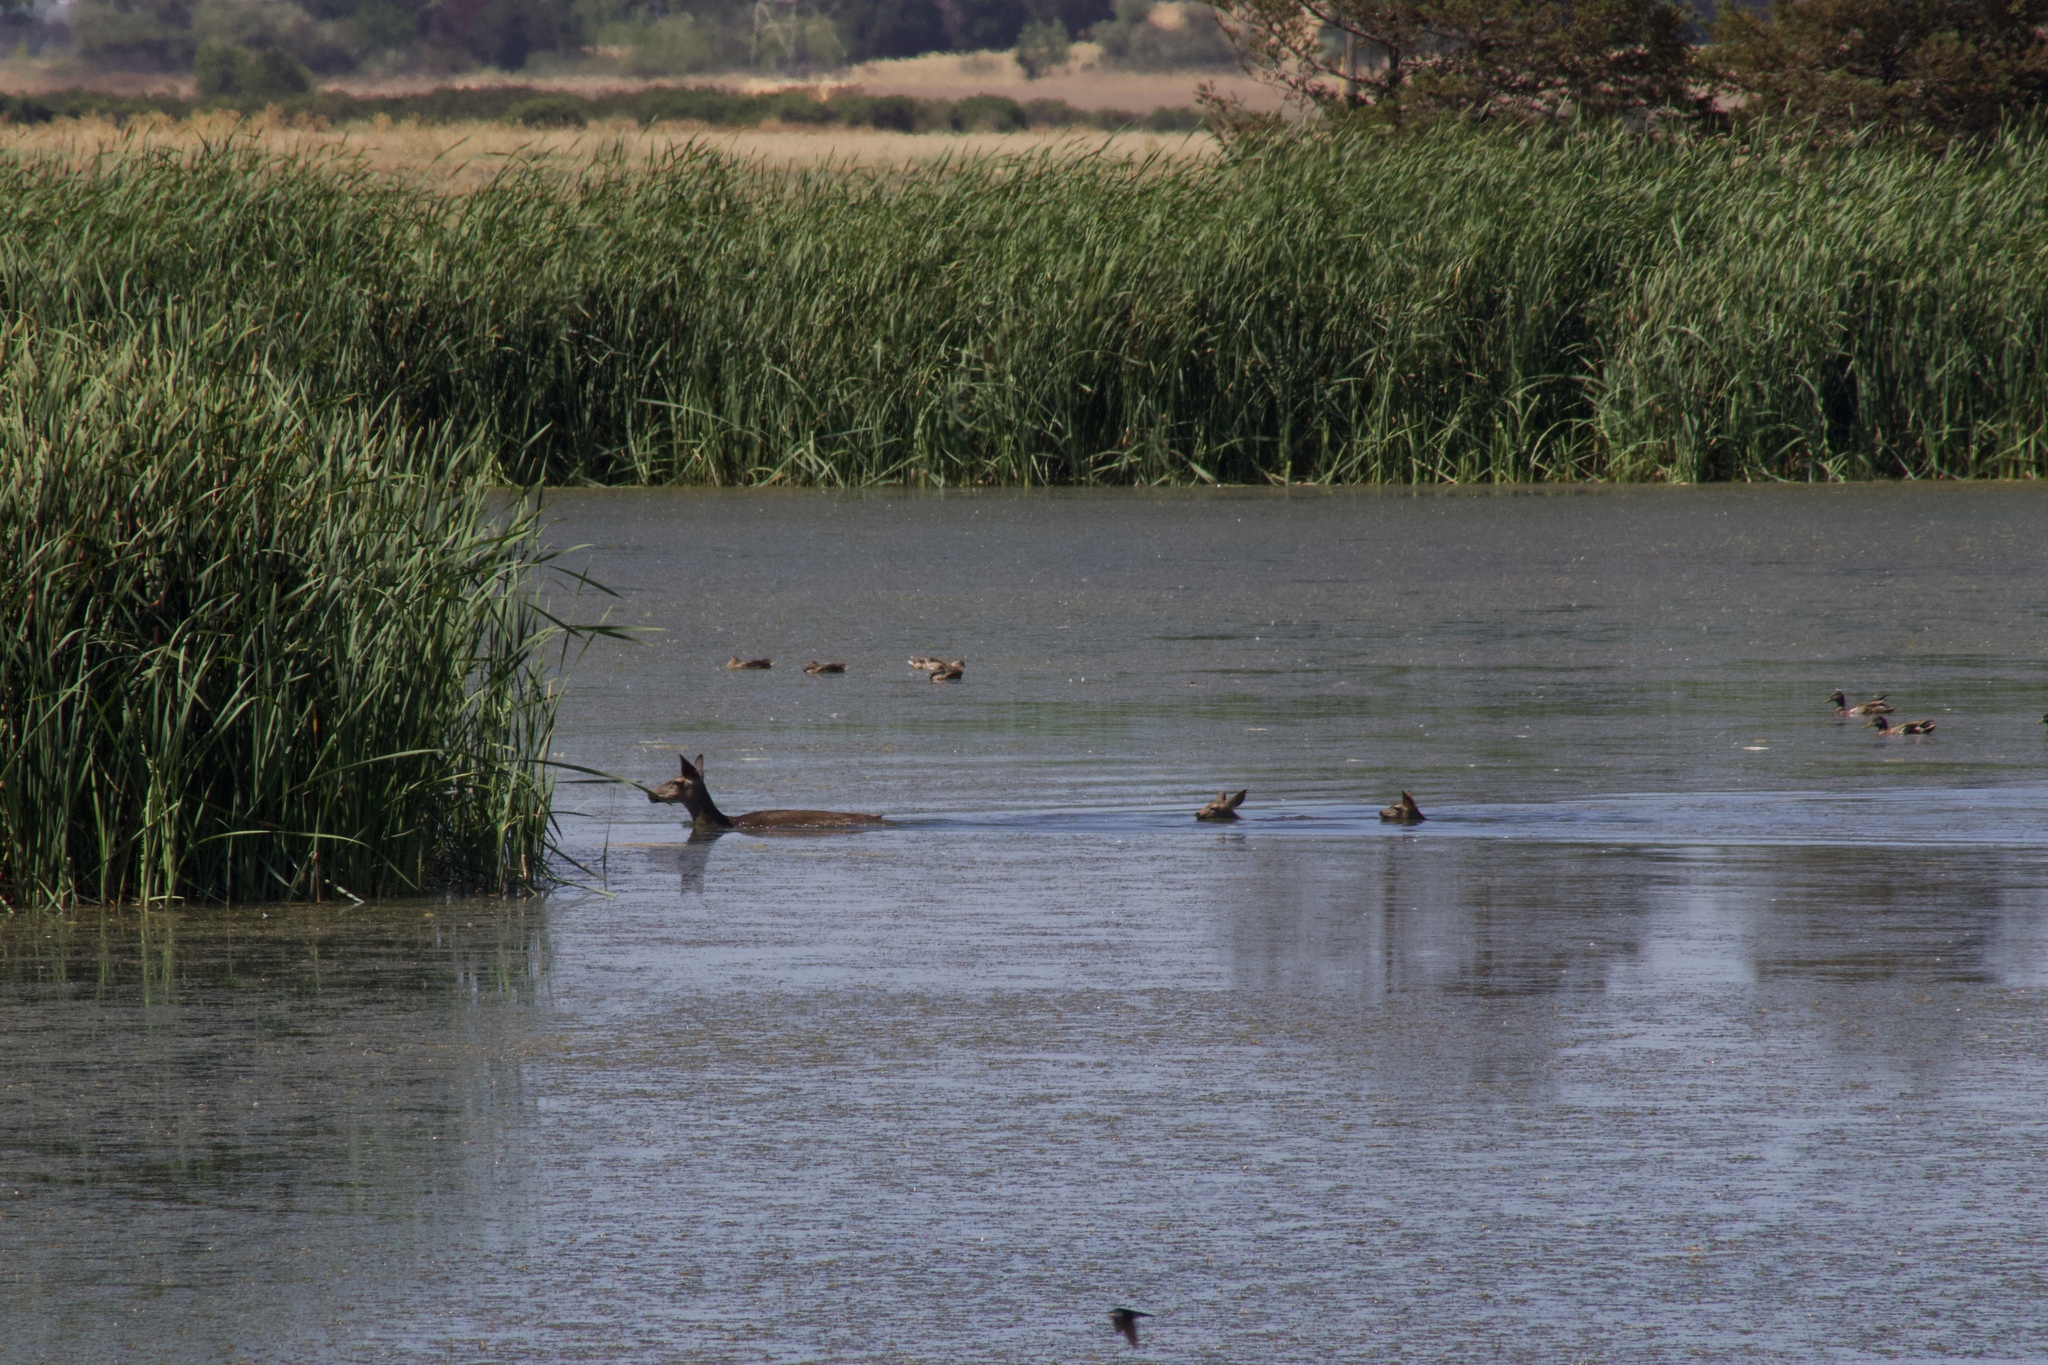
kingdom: Animalia
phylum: Chordata
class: Mammalia
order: Artiodactyla
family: Cervidae
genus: Odocoileus
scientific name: Odocoileus hemionus
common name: Mule deer
